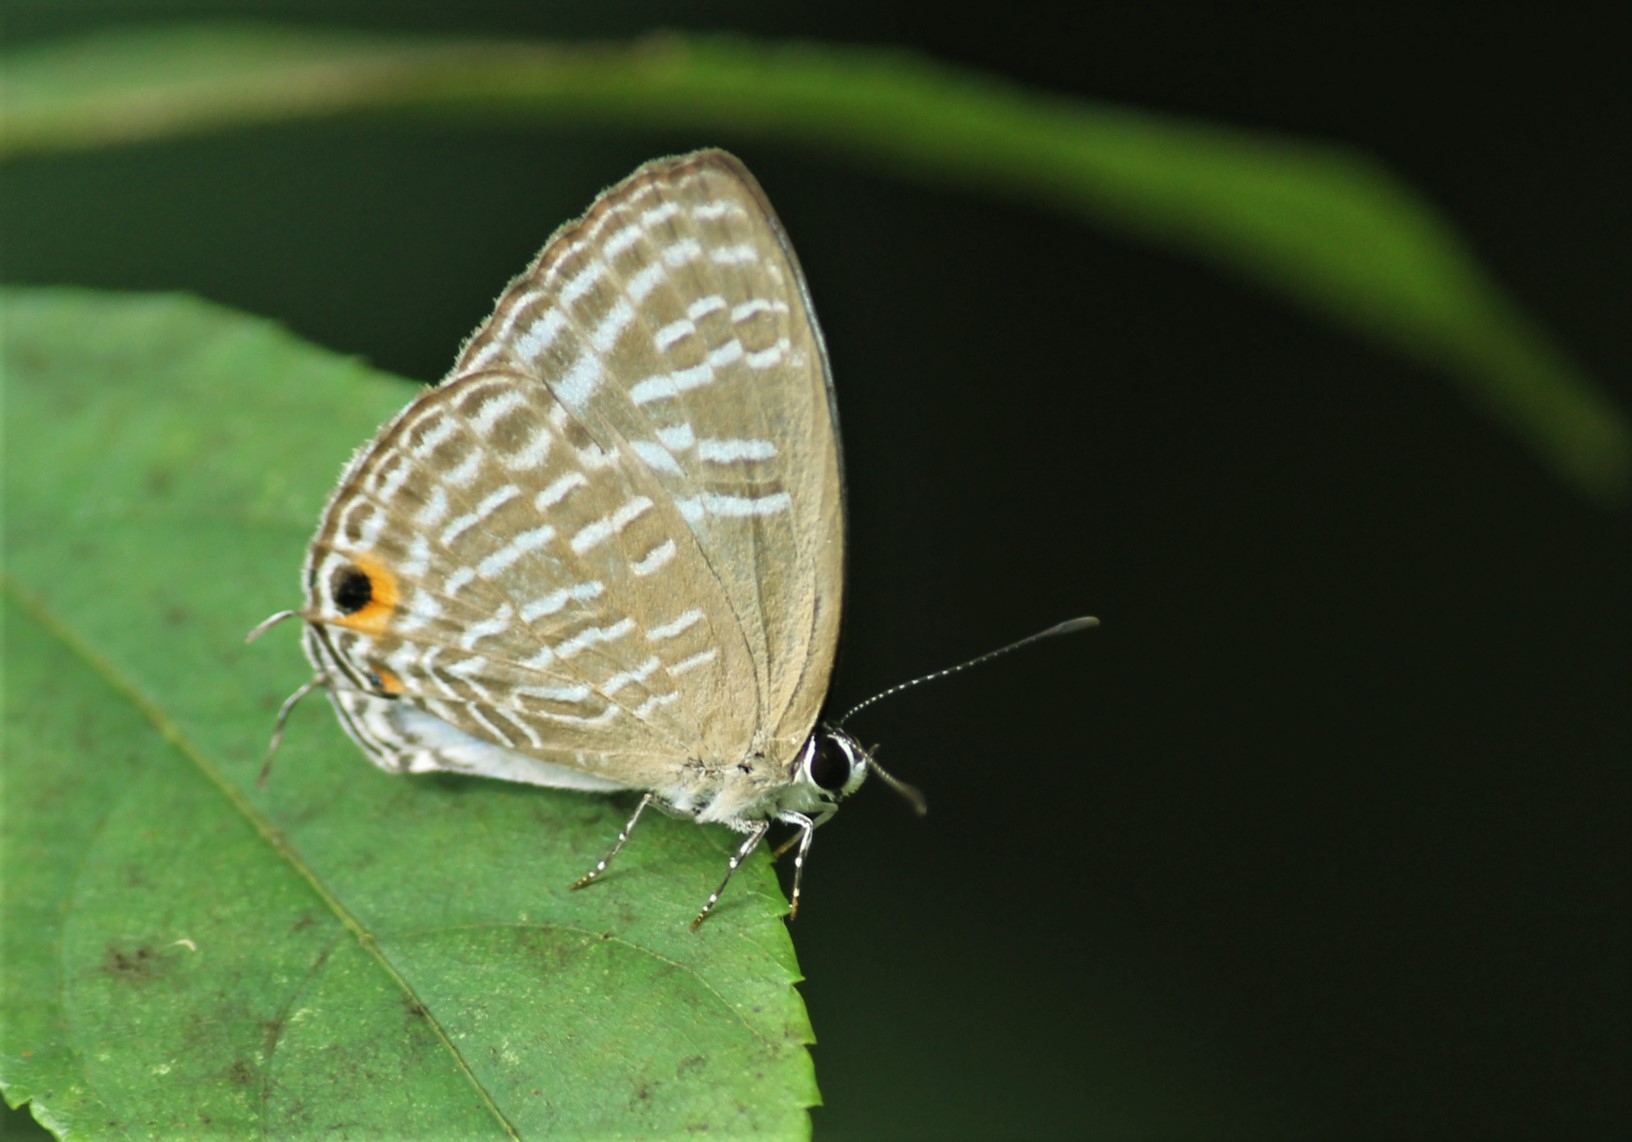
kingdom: Animalia
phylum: Arthropoda
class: Insecta
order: Lepidoptera
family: Lycaenidae
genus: Jamides
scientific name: Jamides alecto
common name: Metallic cerulean
